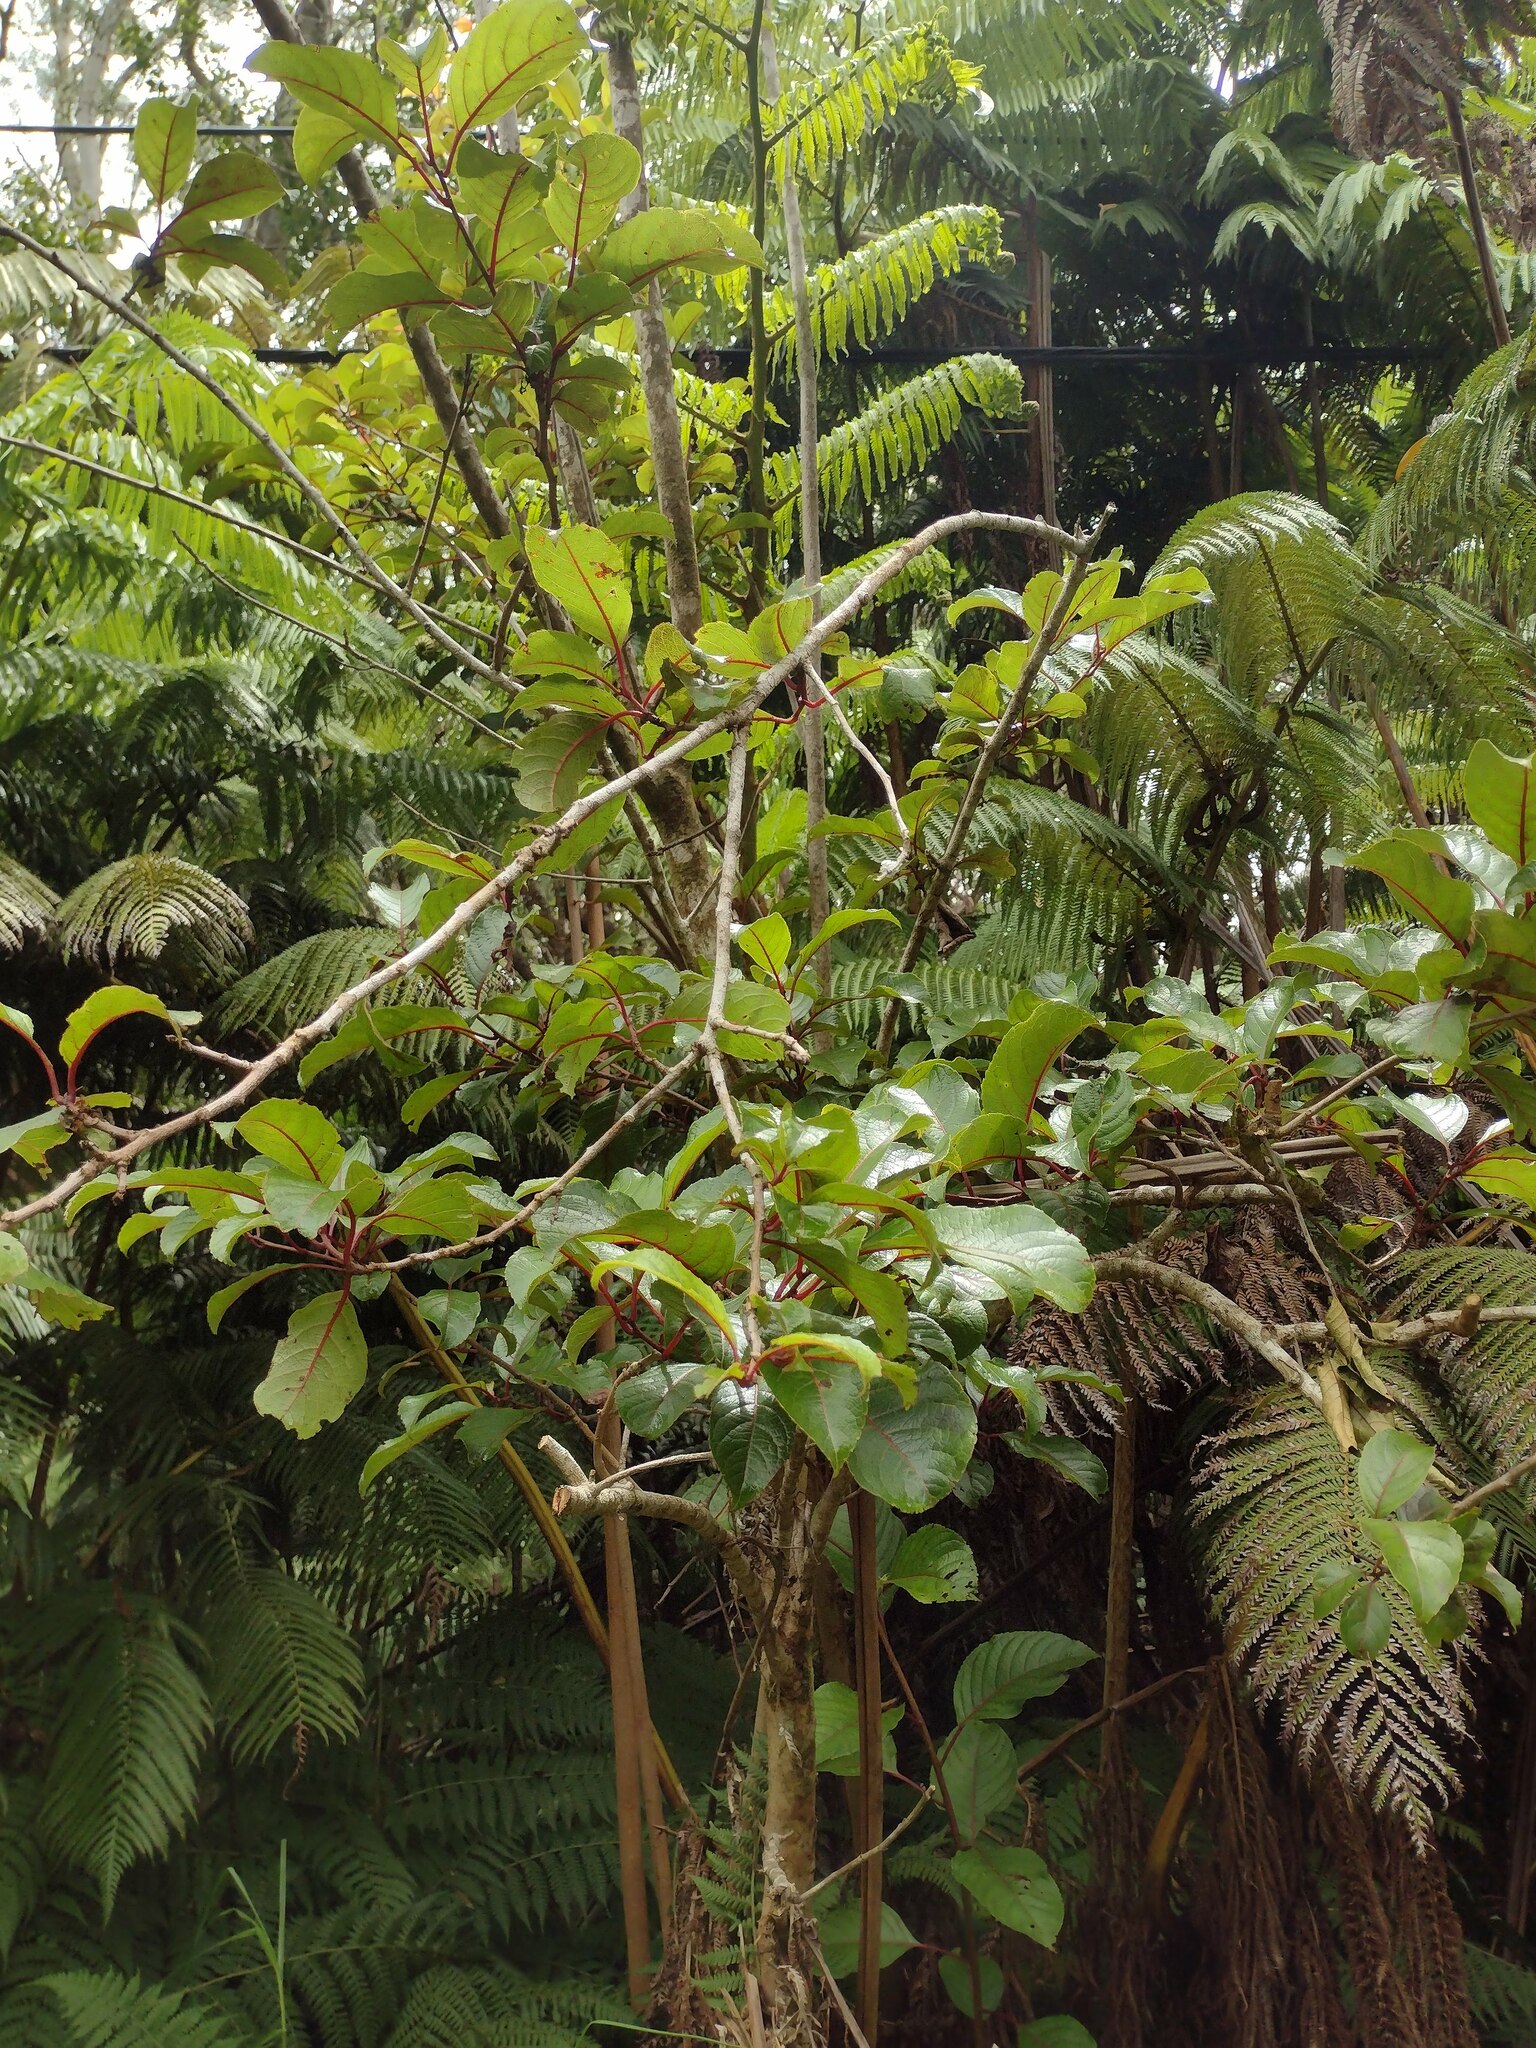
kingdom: Plantae
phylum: Tracheophyta
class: Magnoliopsida
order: Huerteales
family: Dipentodontaceae
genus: Perrottetia
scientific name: Perrottetia sandwicensis
